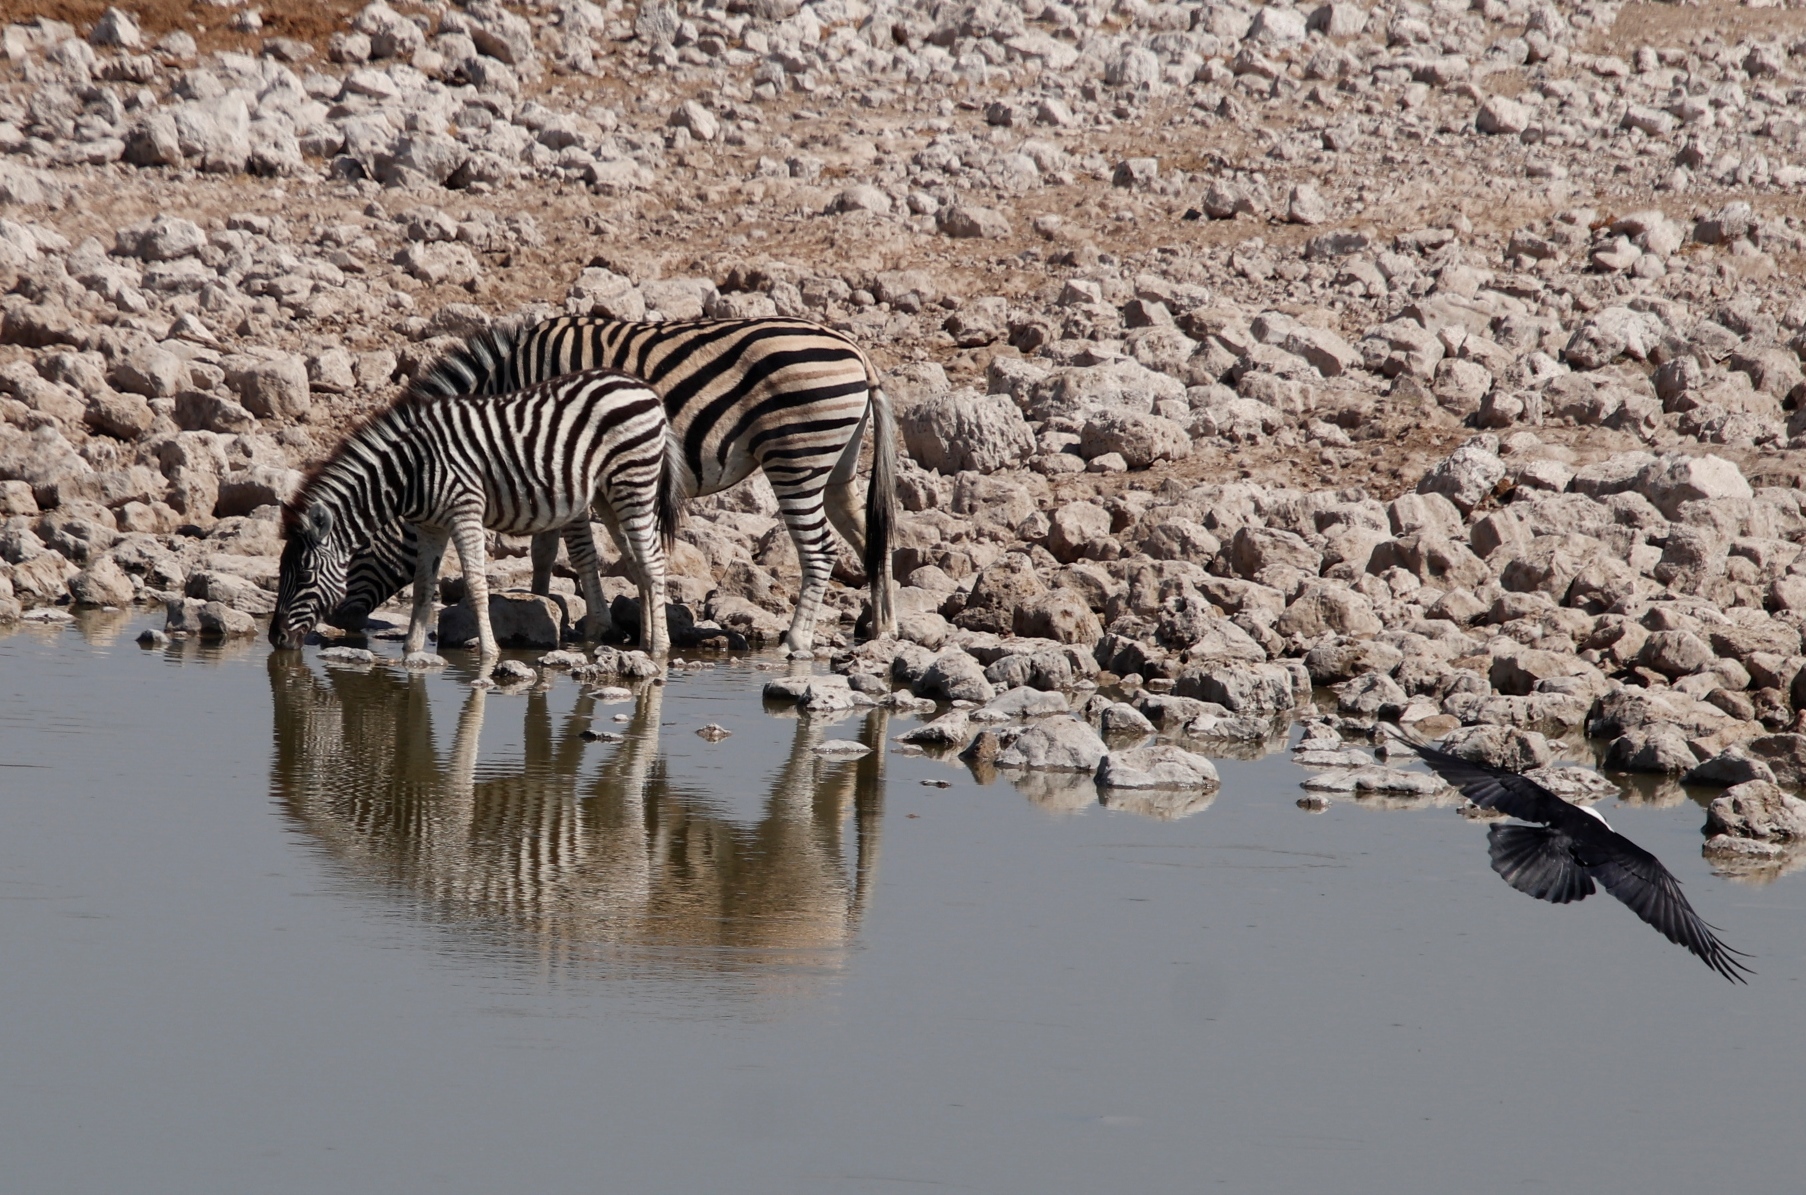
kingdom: Animalia
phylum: Chordata
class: Mammalia
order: Perissodactyla
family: Equidae
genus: Equus
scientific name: Equus quagga
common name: Plains zebra
